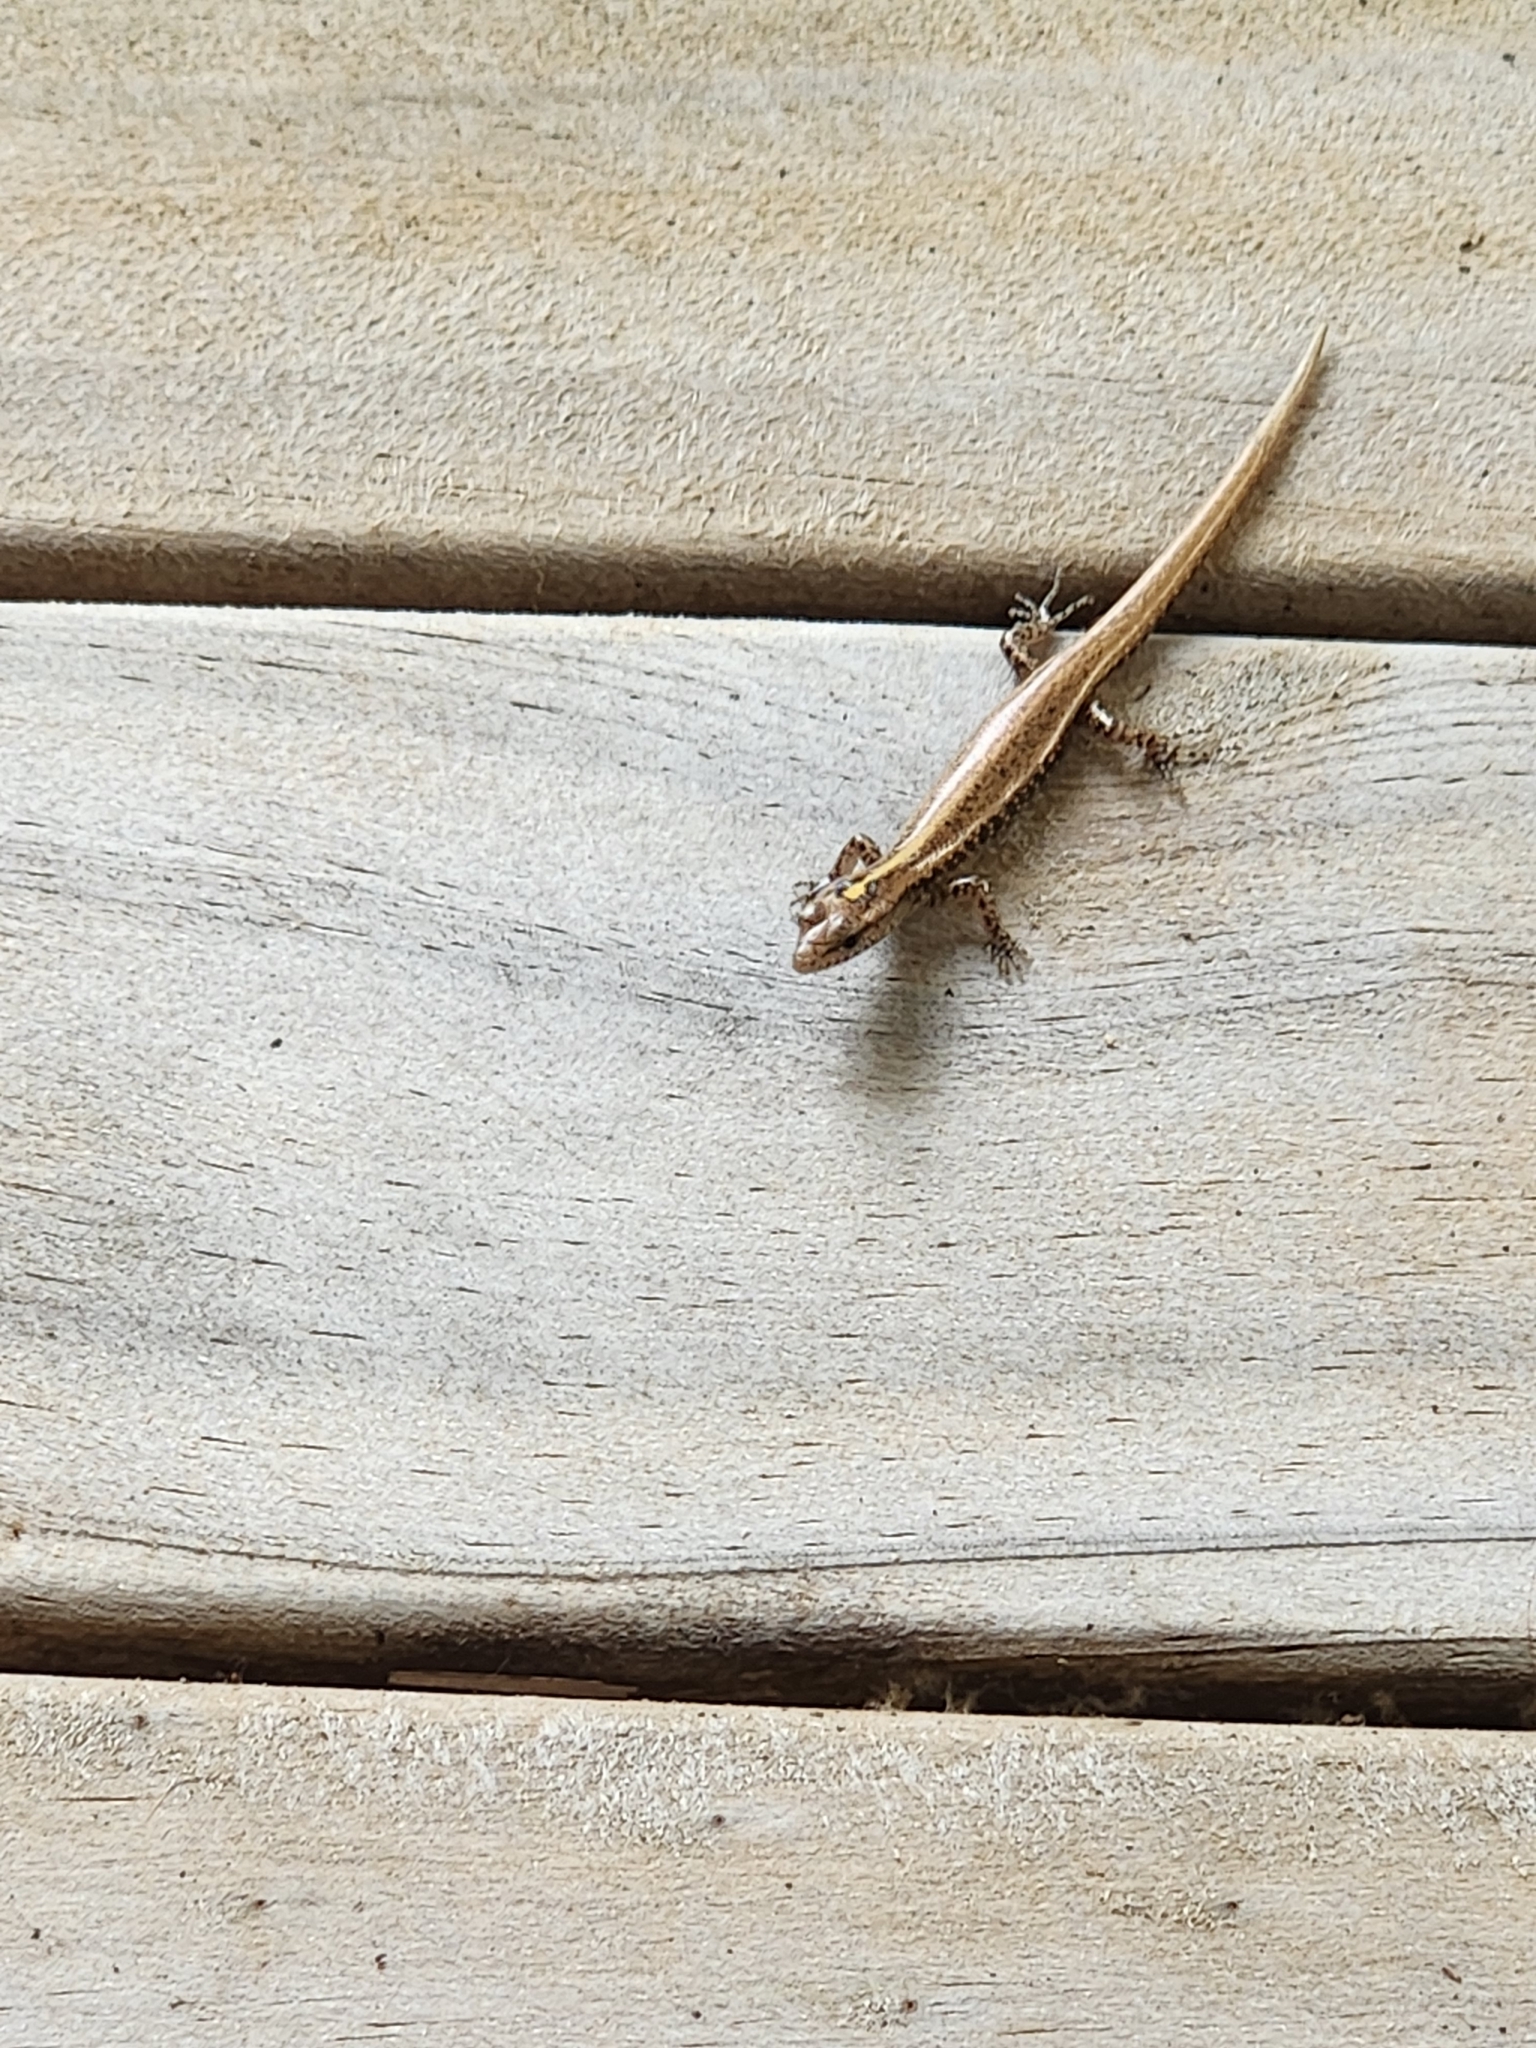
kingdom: Animalia
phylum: Chordata
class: Squamata
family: Scincidae
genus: Ornithuroscincus
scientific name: Ornithuroscincus noctua
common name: Moth skink
